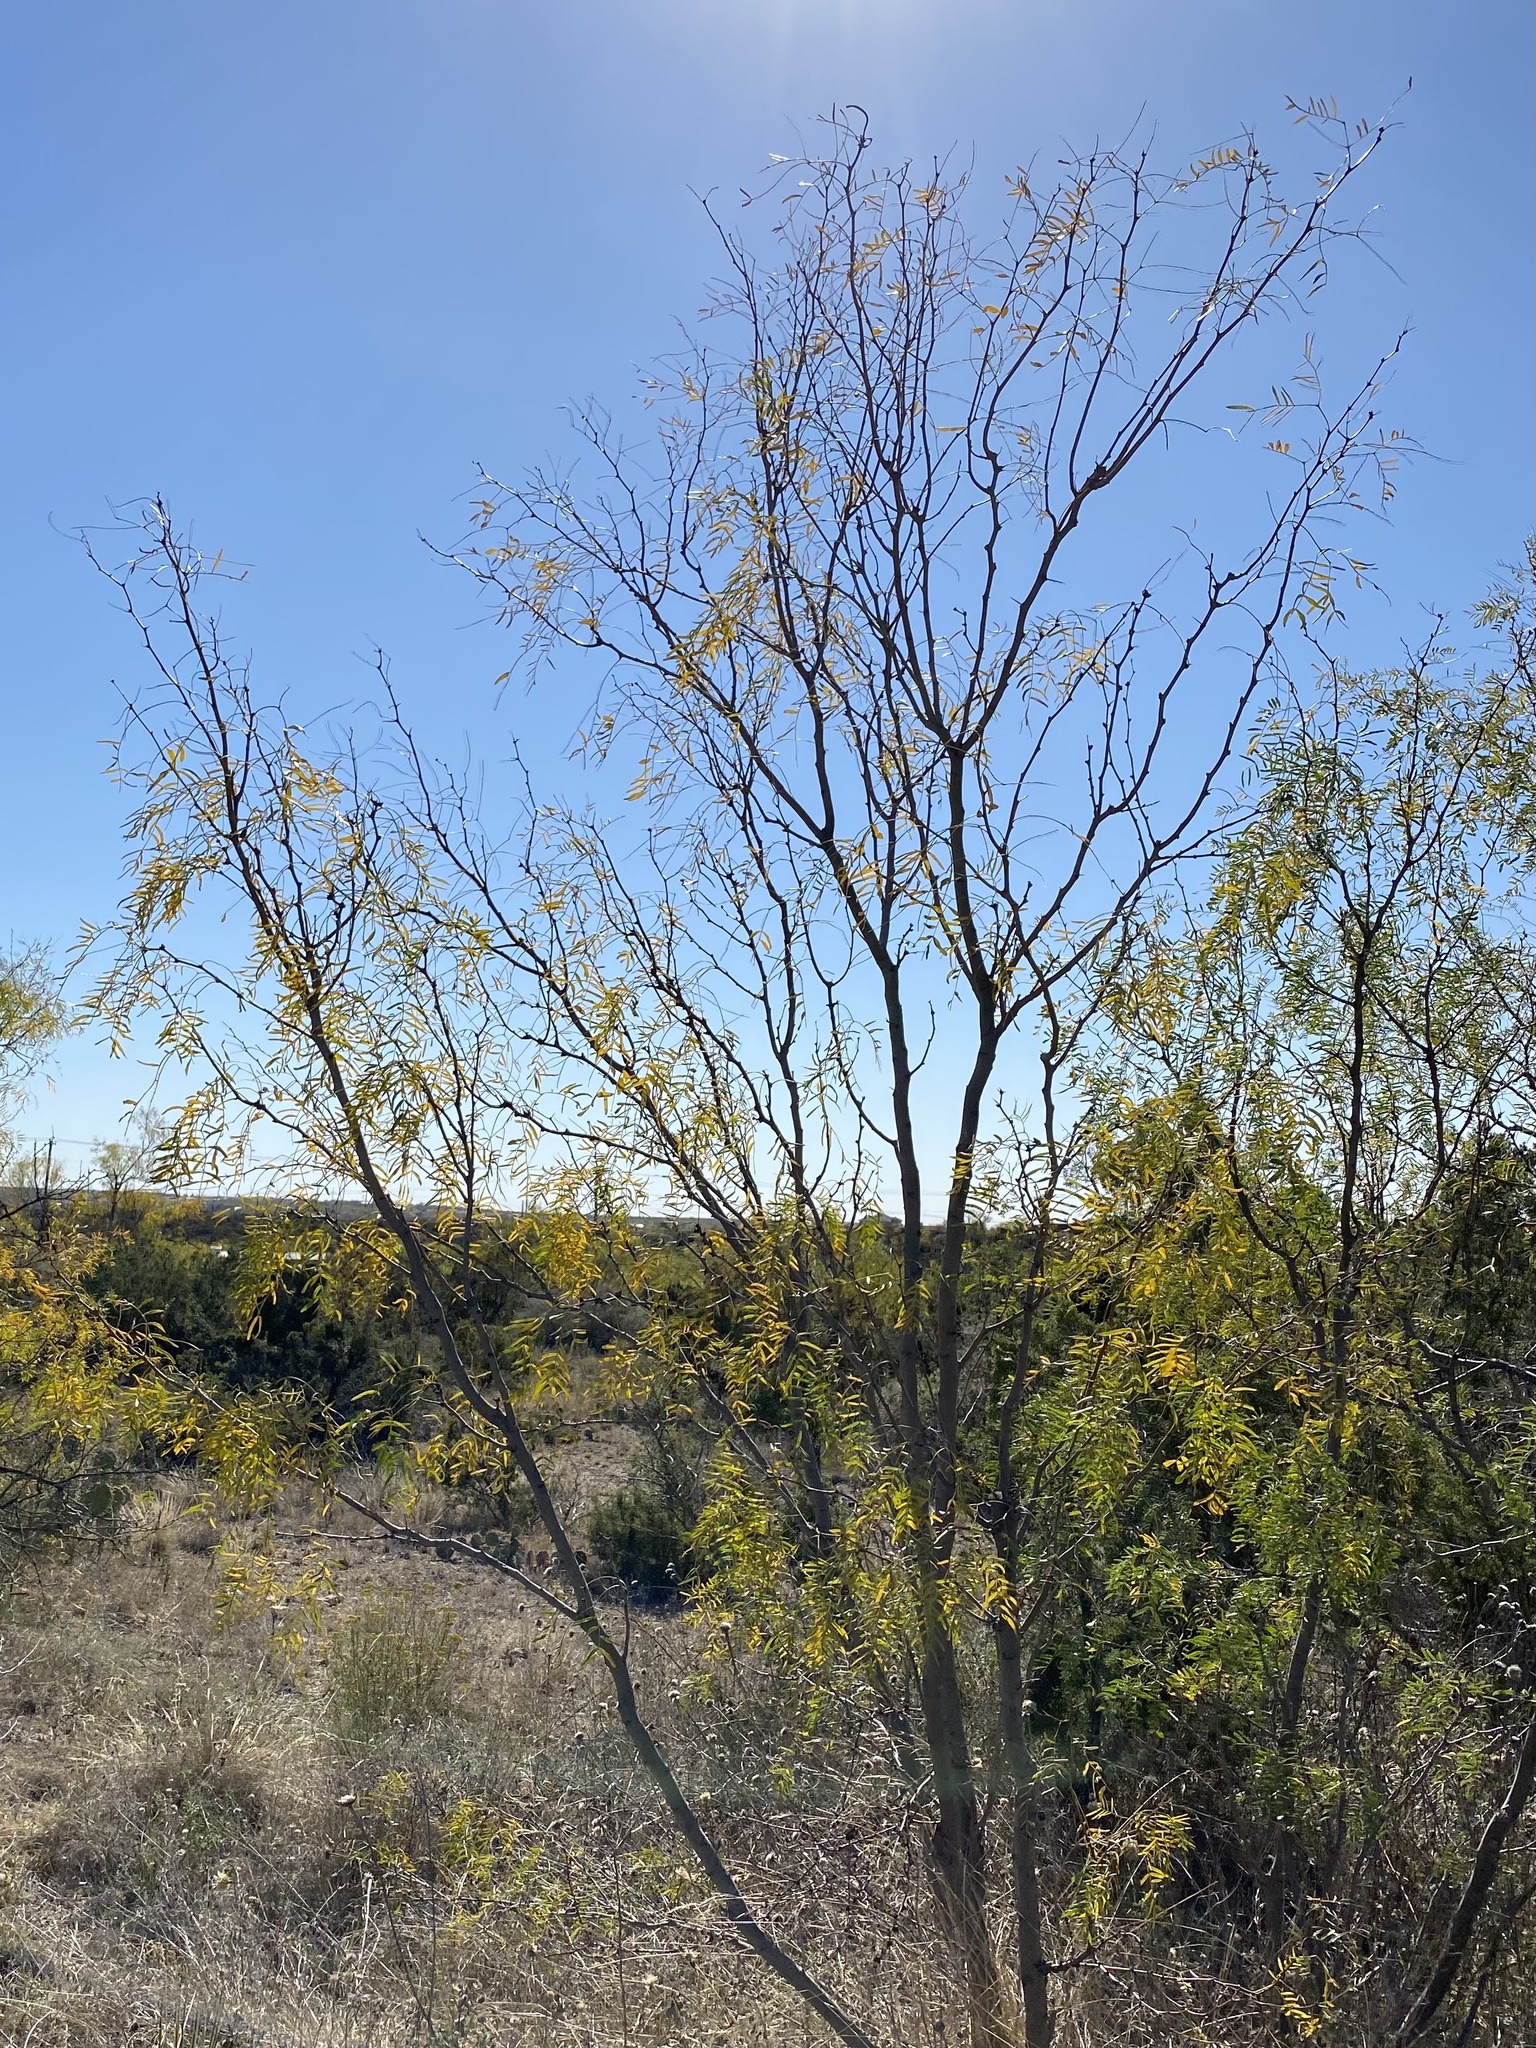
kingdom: Plantae
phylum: Tracheophyta
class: Magnoliopsida
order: Fabales
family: Fabaceae
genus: Prosopis
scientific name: Prosopis glandulosa
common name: Honey mesquite
